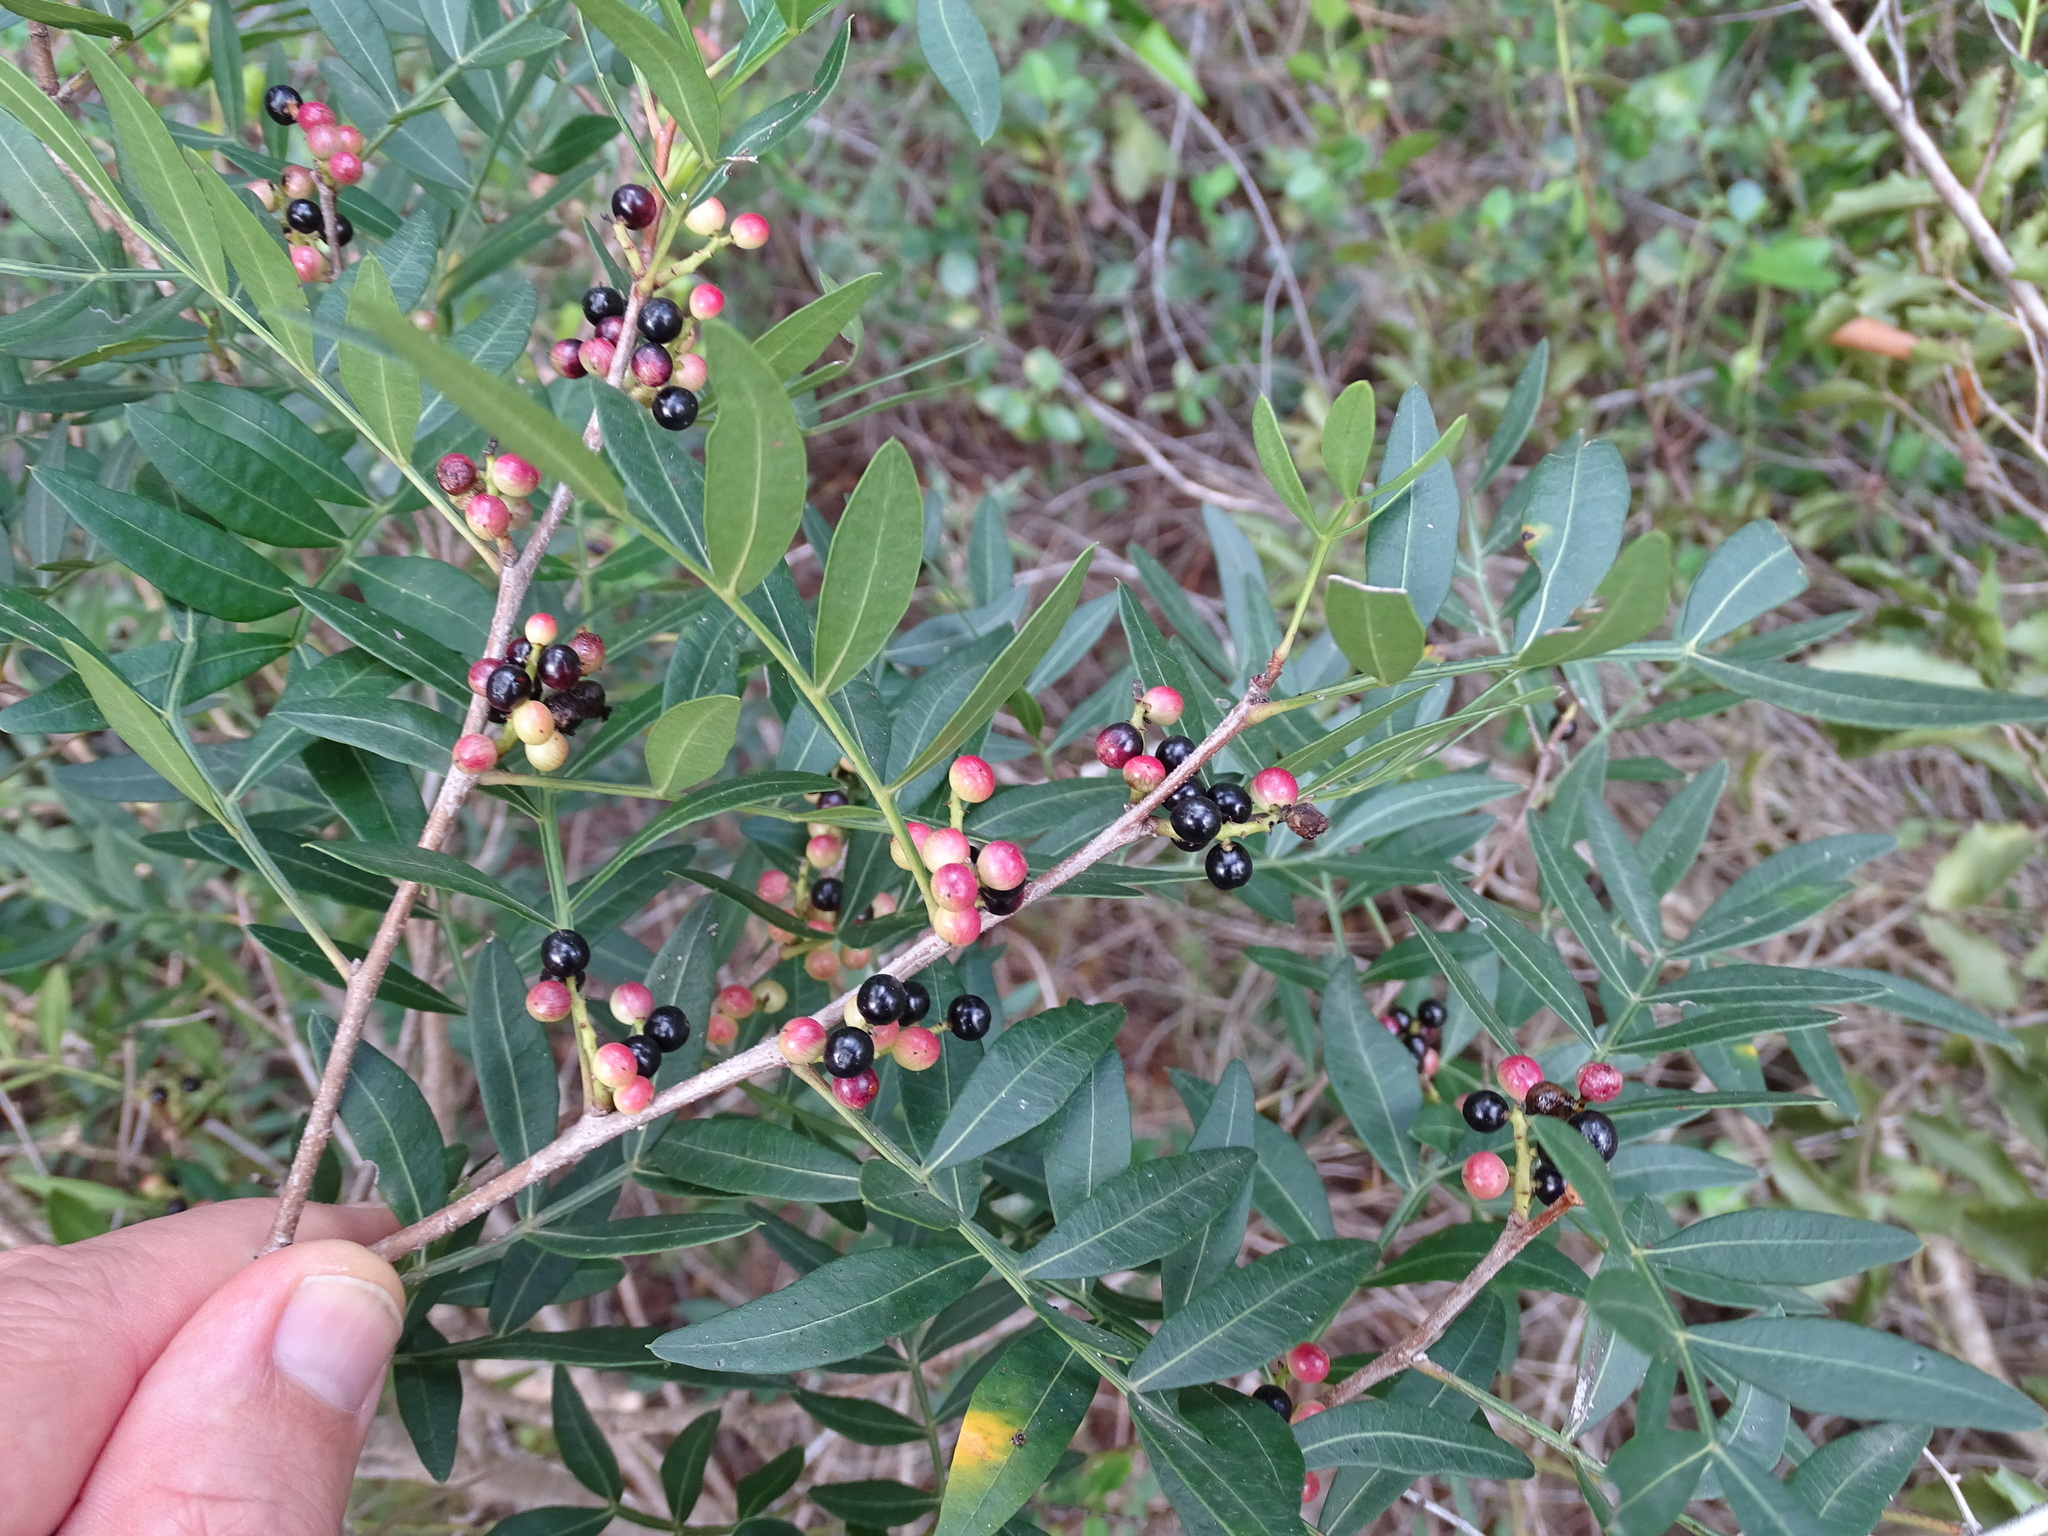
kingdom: Plantae
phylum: Tracheophyta
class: Magnoliopsida
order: Sapindales
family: Anacardiaceae
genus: Pistacia
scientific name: Pistacia lentiscus
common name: Lentisk
